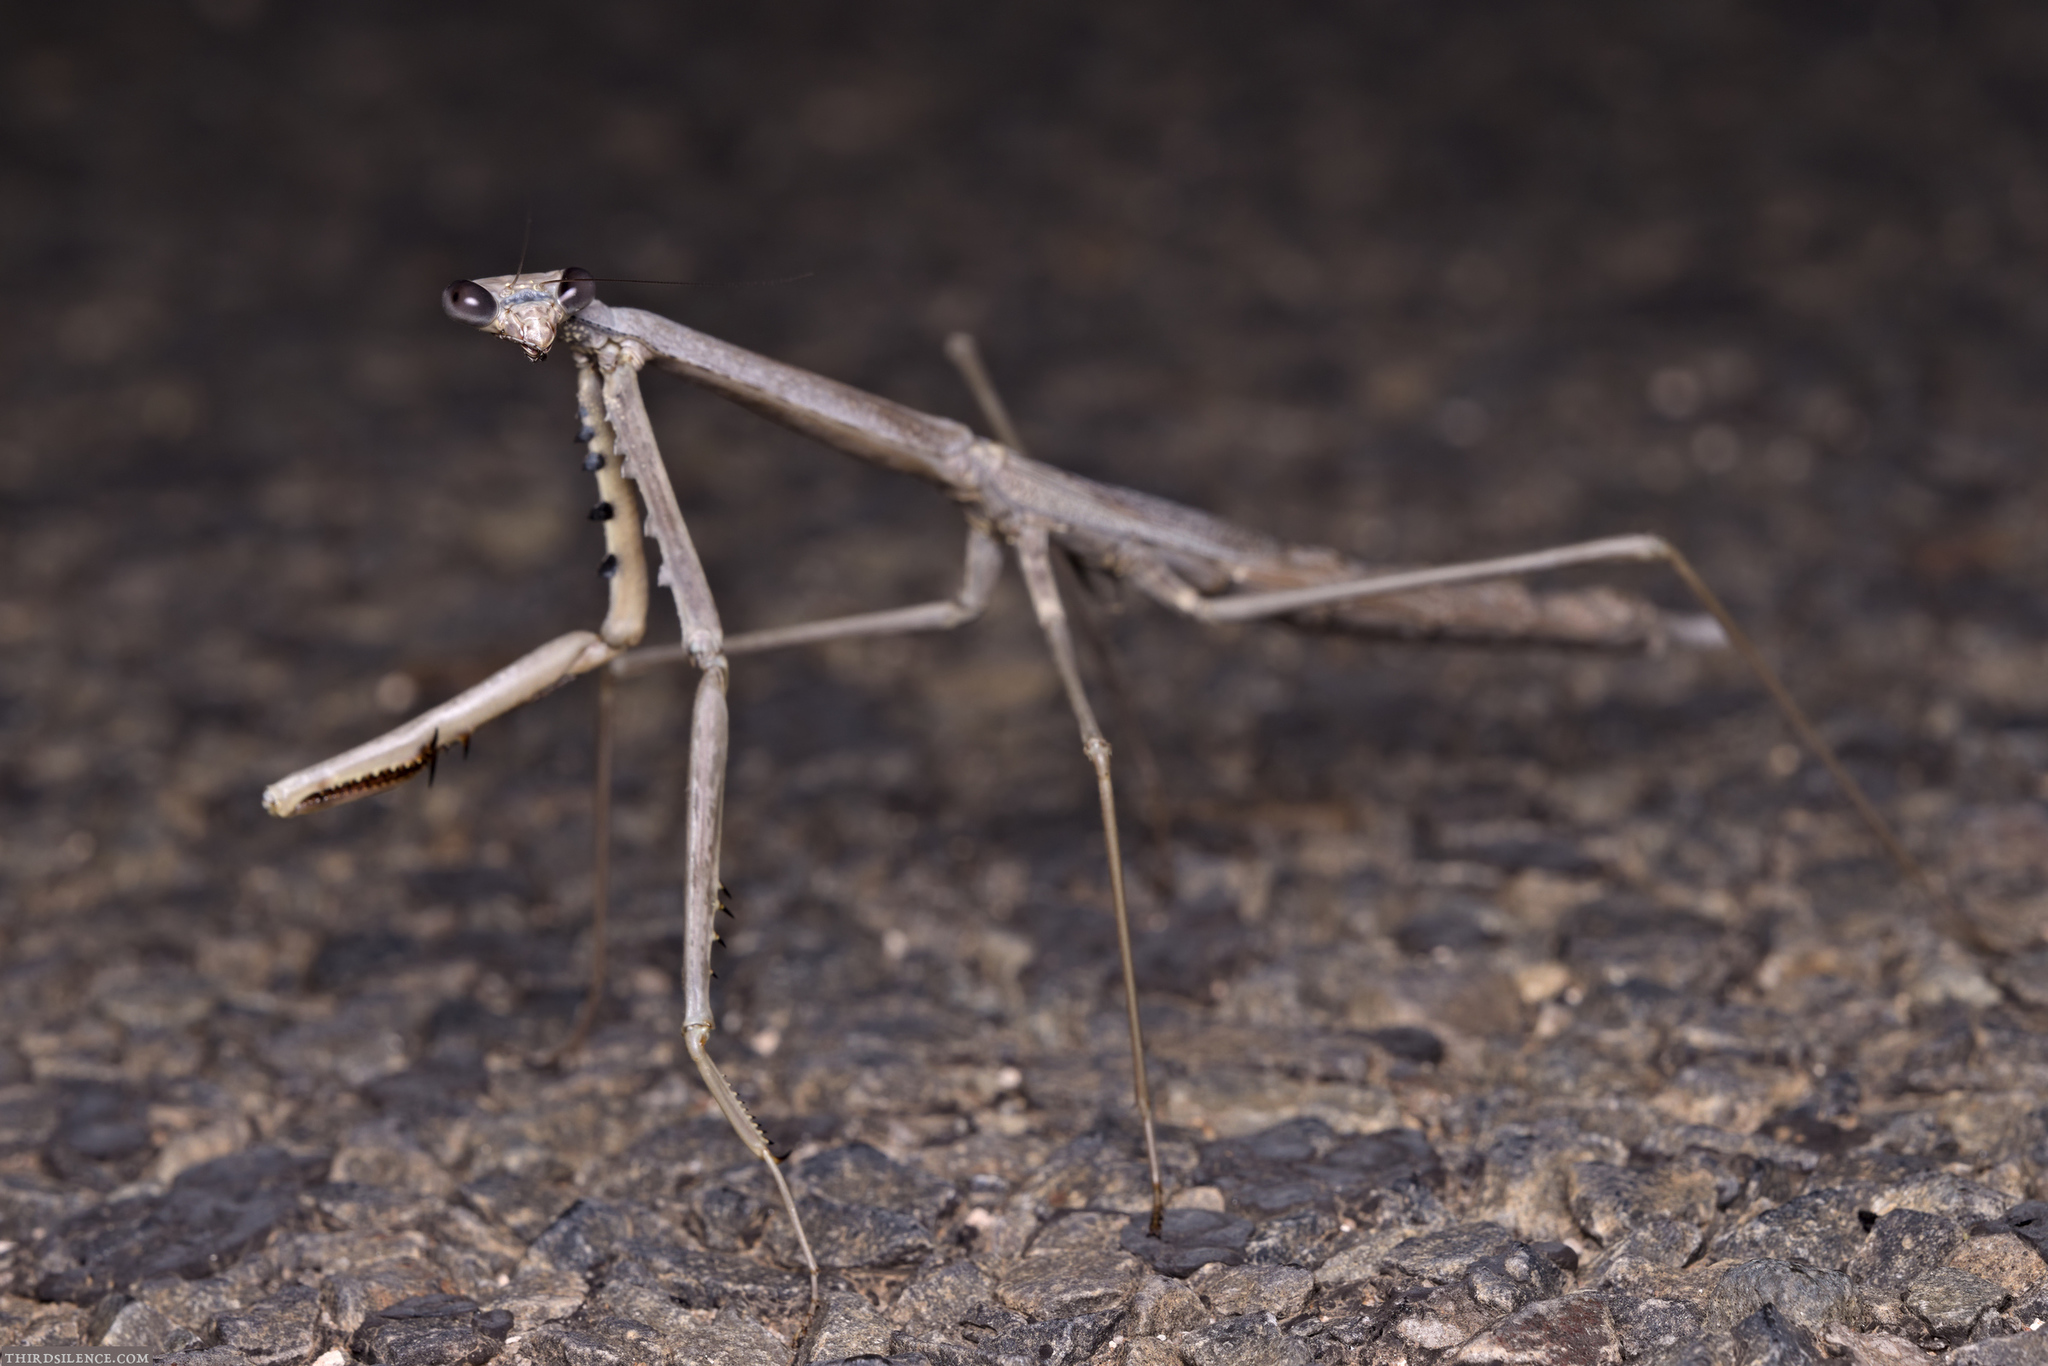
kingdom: Animalia
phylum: Arthropoda
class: Insecta
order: Mantodea
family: Mantidae
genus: Archimantis
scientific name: Archimantis quinquelobata
